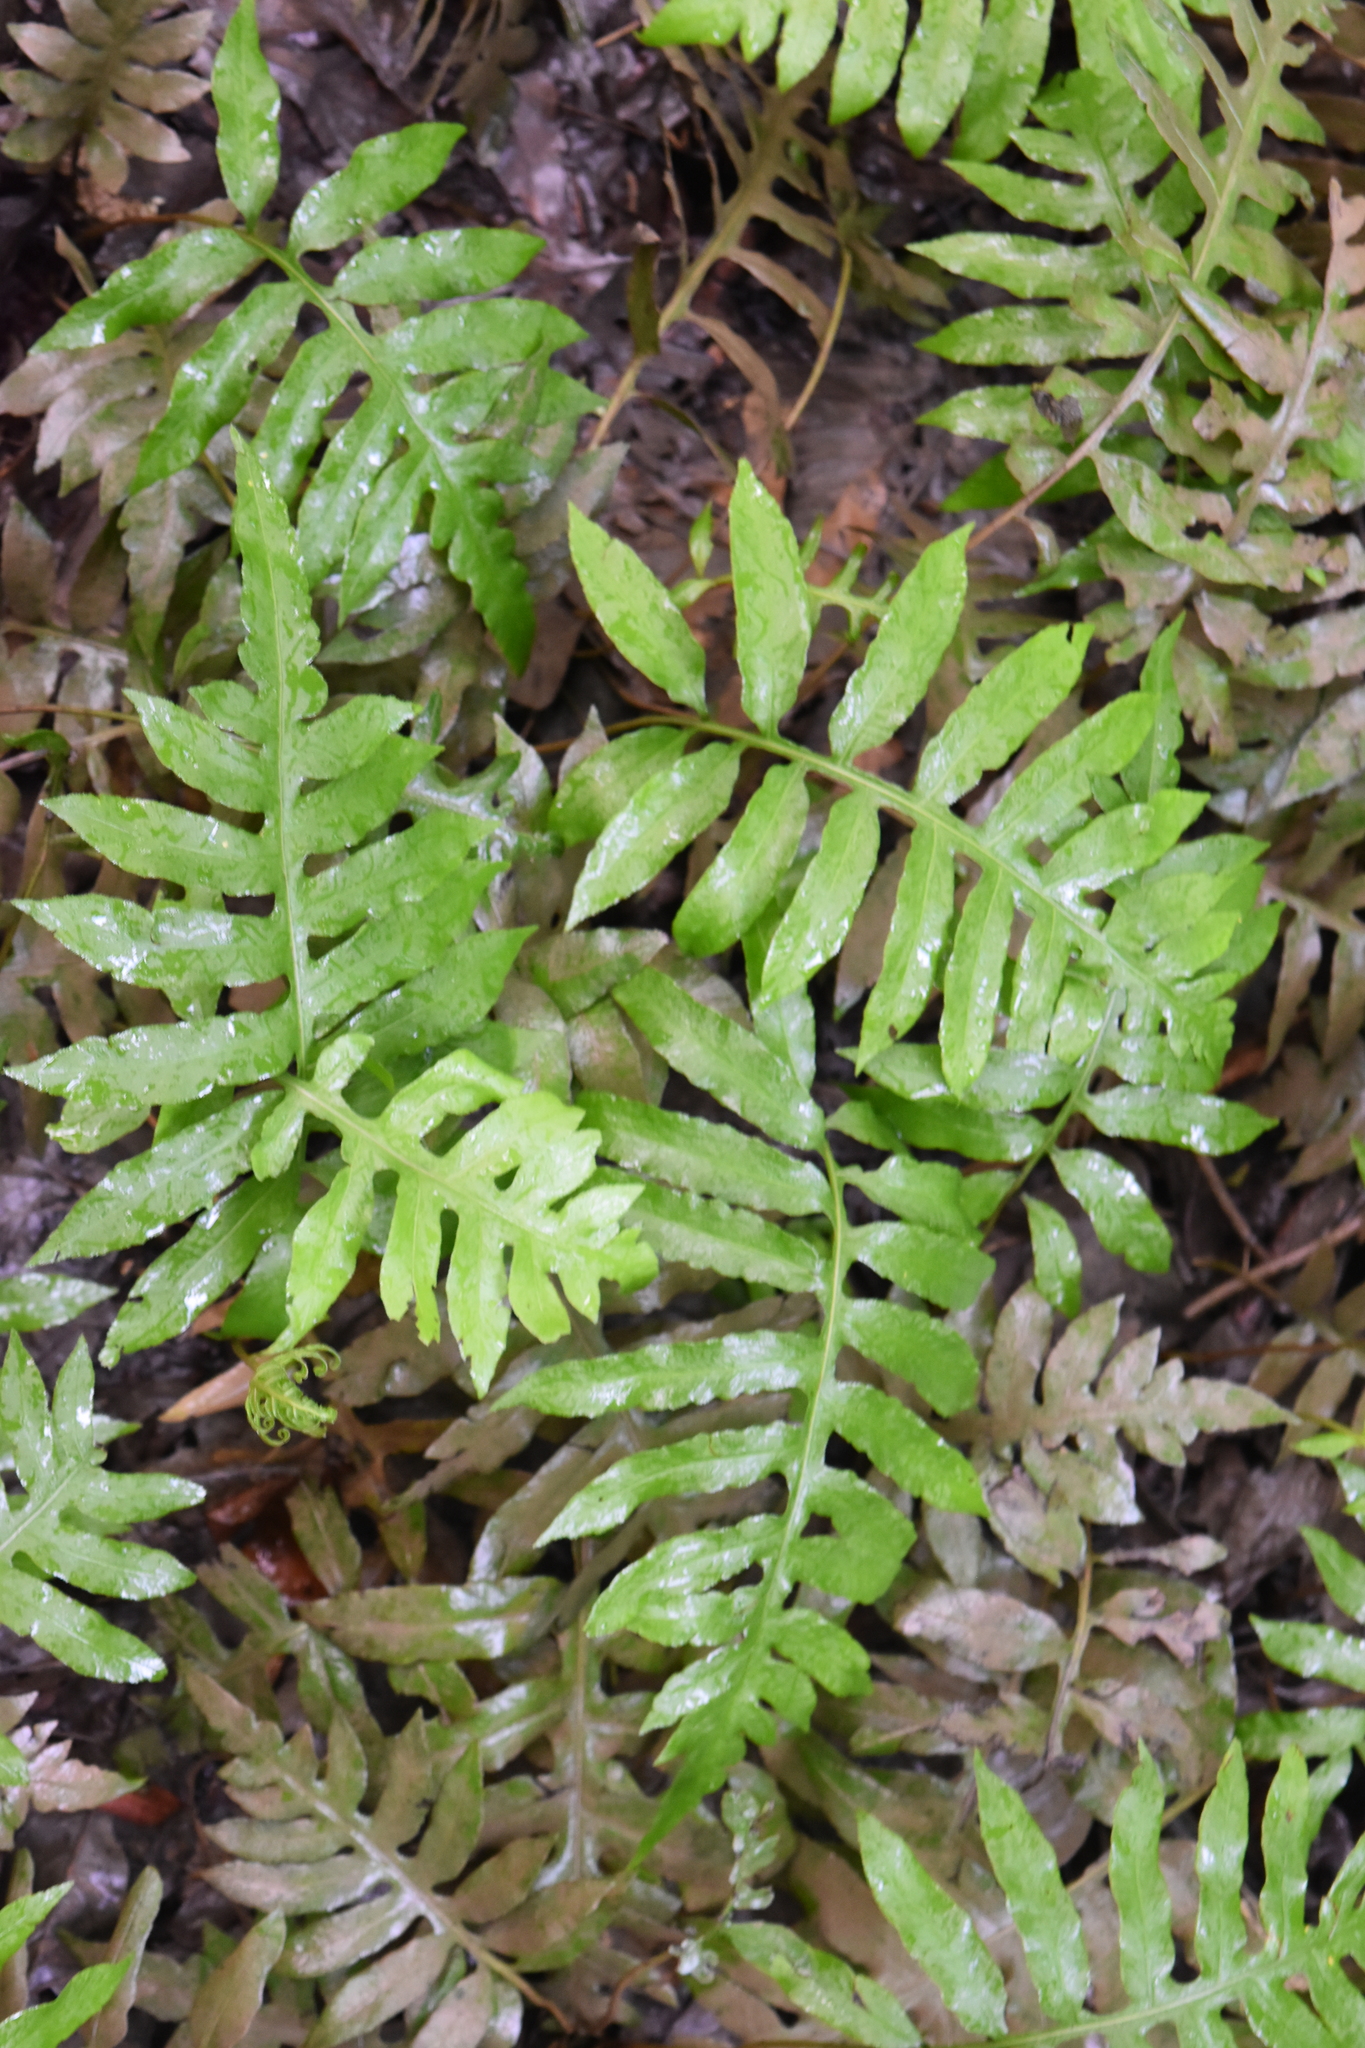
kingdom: Plantae
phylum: Tracheophyta
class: Polypodiopsida
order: Polypodiales
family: Blechnaceae
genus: Lorinseria
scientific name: Lorinseria areolata
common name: Dwarf chain fern
